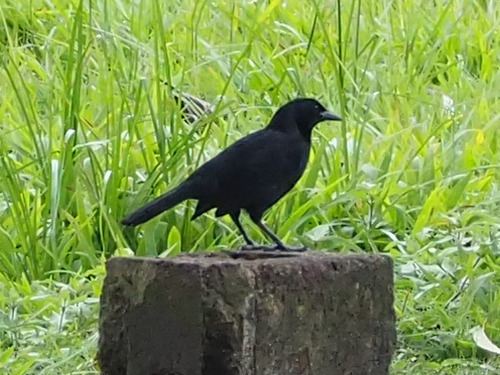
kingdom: Animalia
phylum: Chordata
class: Aves
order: Passeriformes
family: Icteridae
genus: Dives
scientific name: Dives dives
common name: Melodious blackbird
